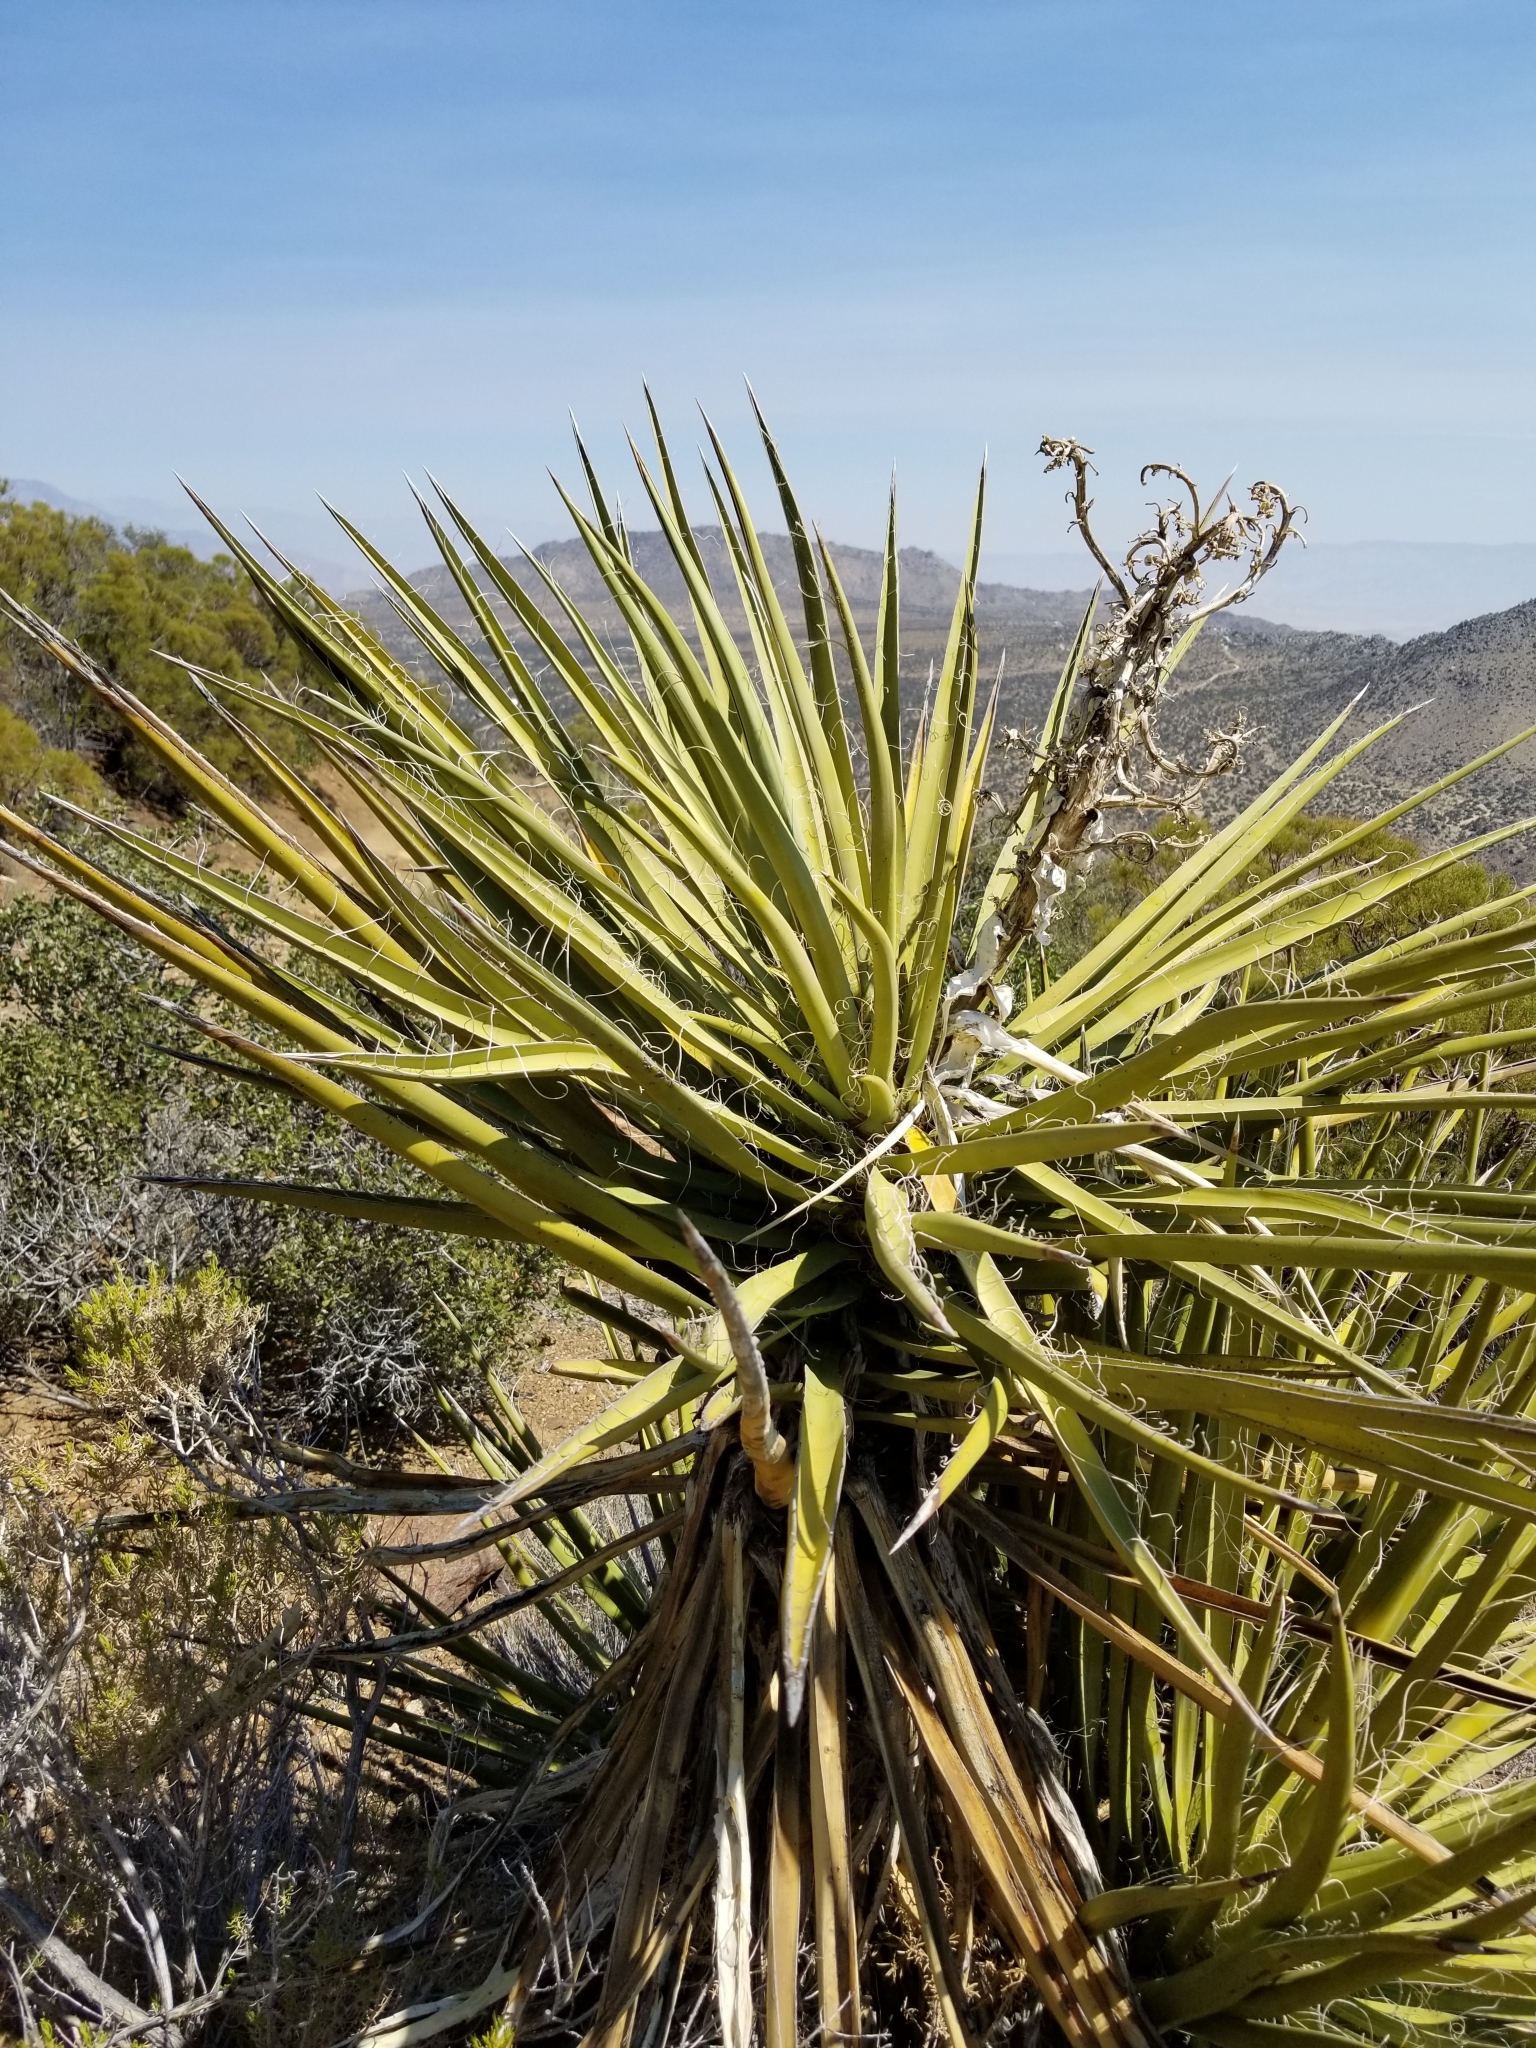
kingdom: Plantae
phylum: Tracheophyta
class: Liliopsida
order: Asparagales
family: Asparagaceae
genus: Yucca
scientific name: Yucca schidigera
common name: Mojave yucca
